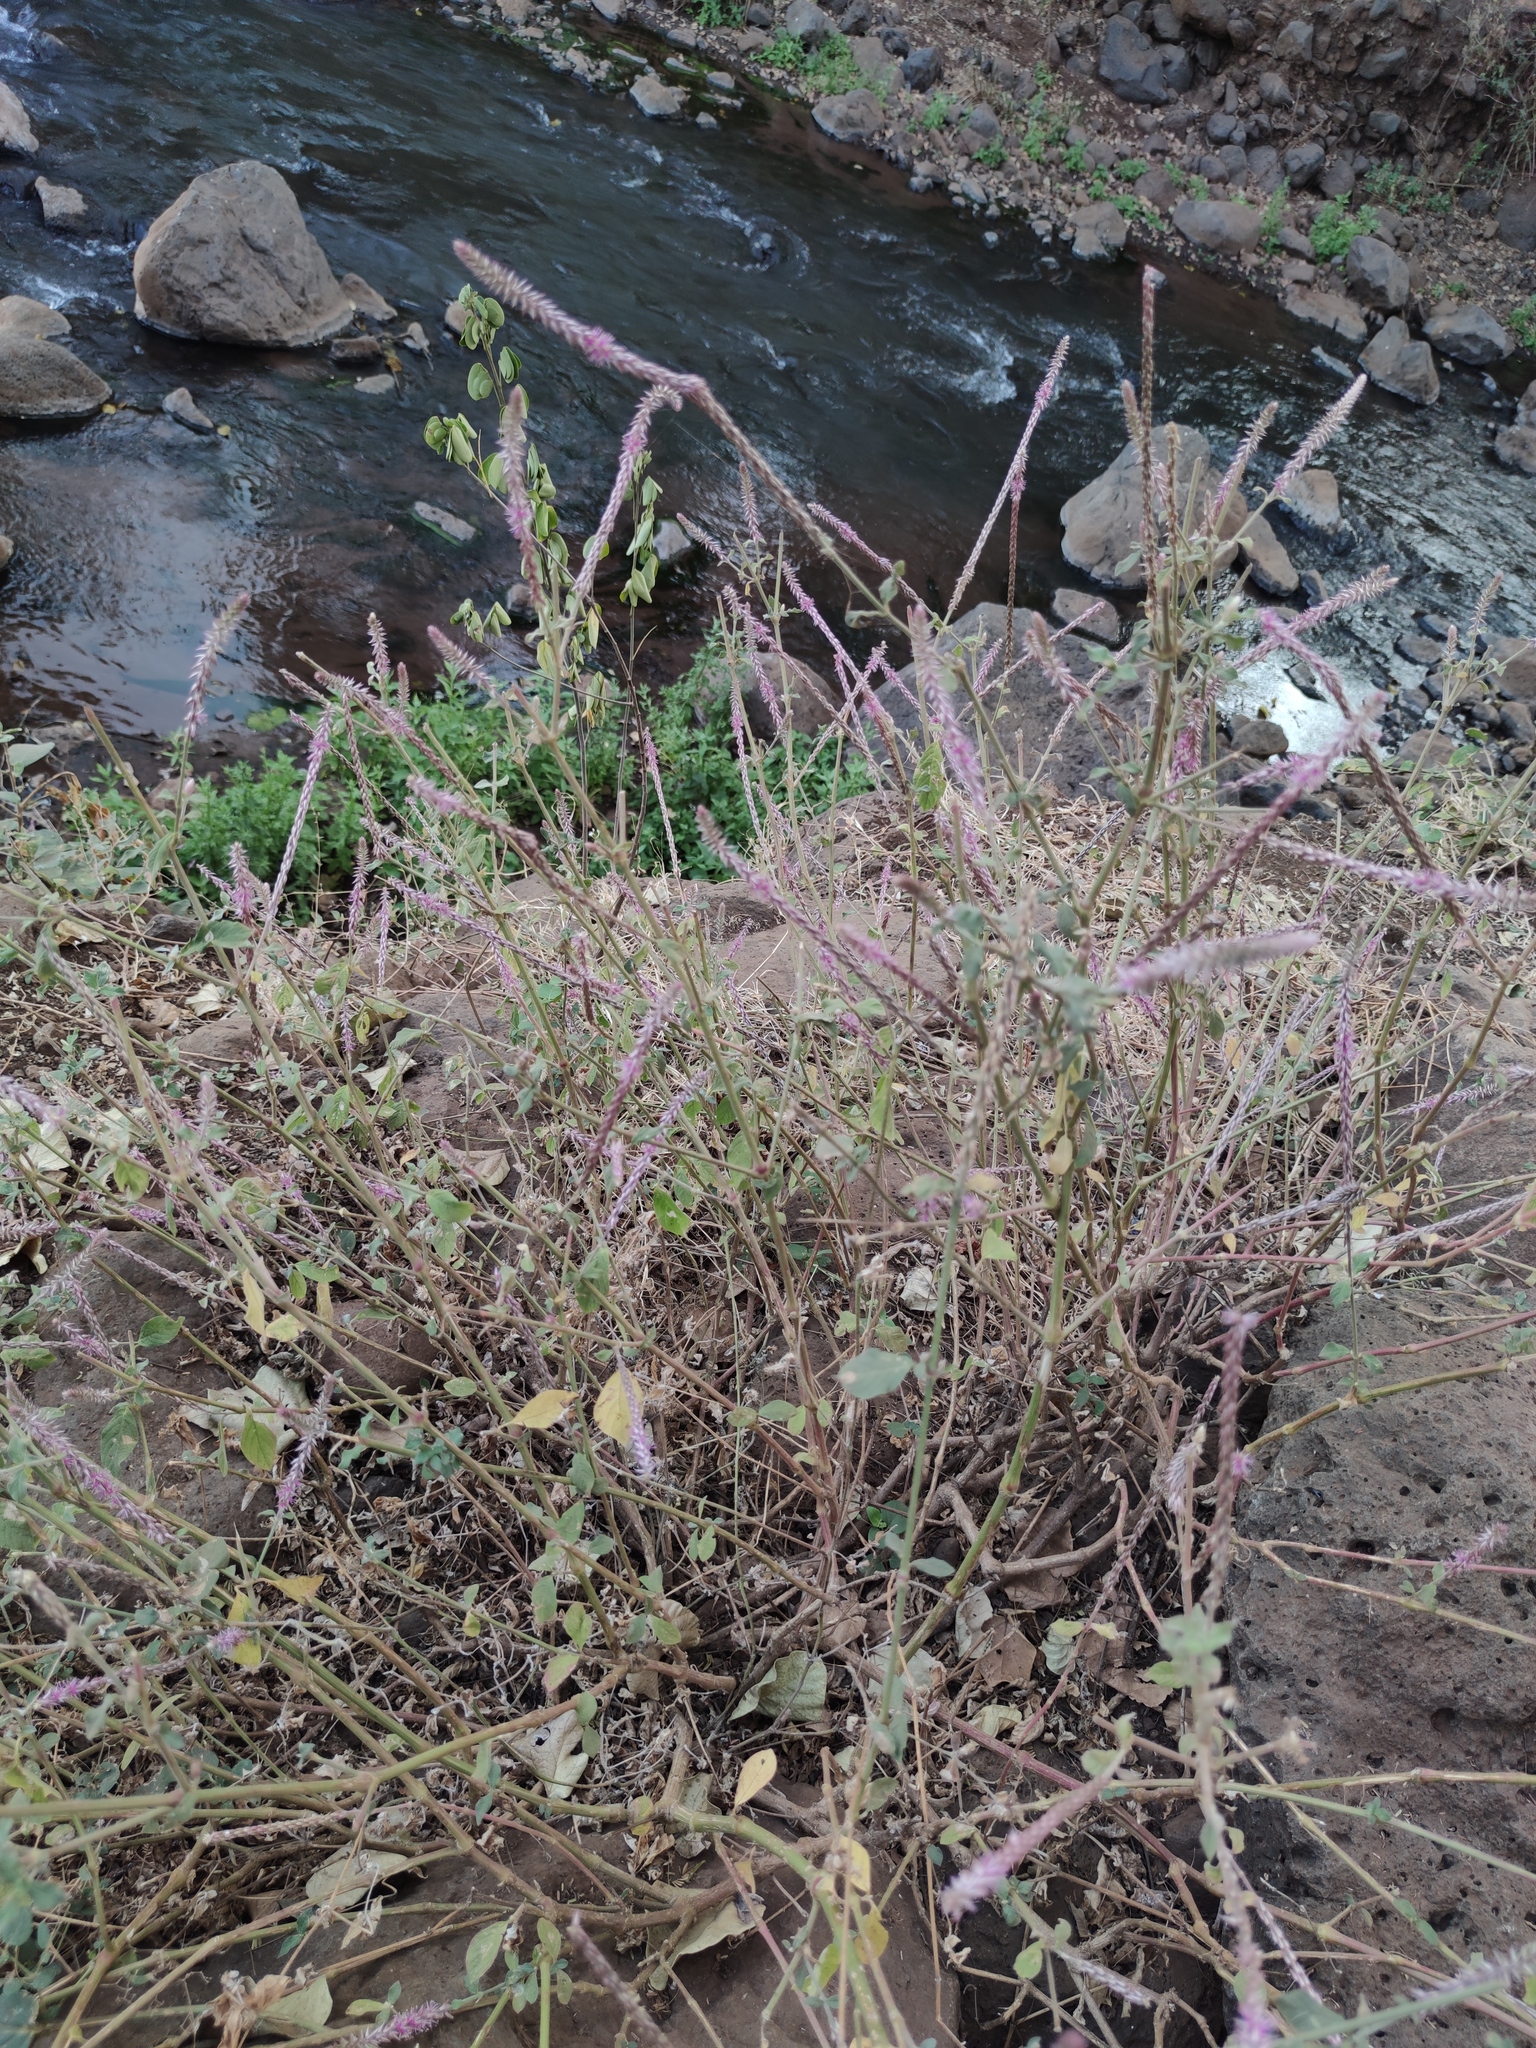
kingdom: Plantae
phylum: Tracheophyta
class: Magnoliopsida
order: Caryophyllales
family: Amaranthaceae
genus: Achyranthes
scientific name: Achyranthes aspera
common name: Devil's horsewhip
